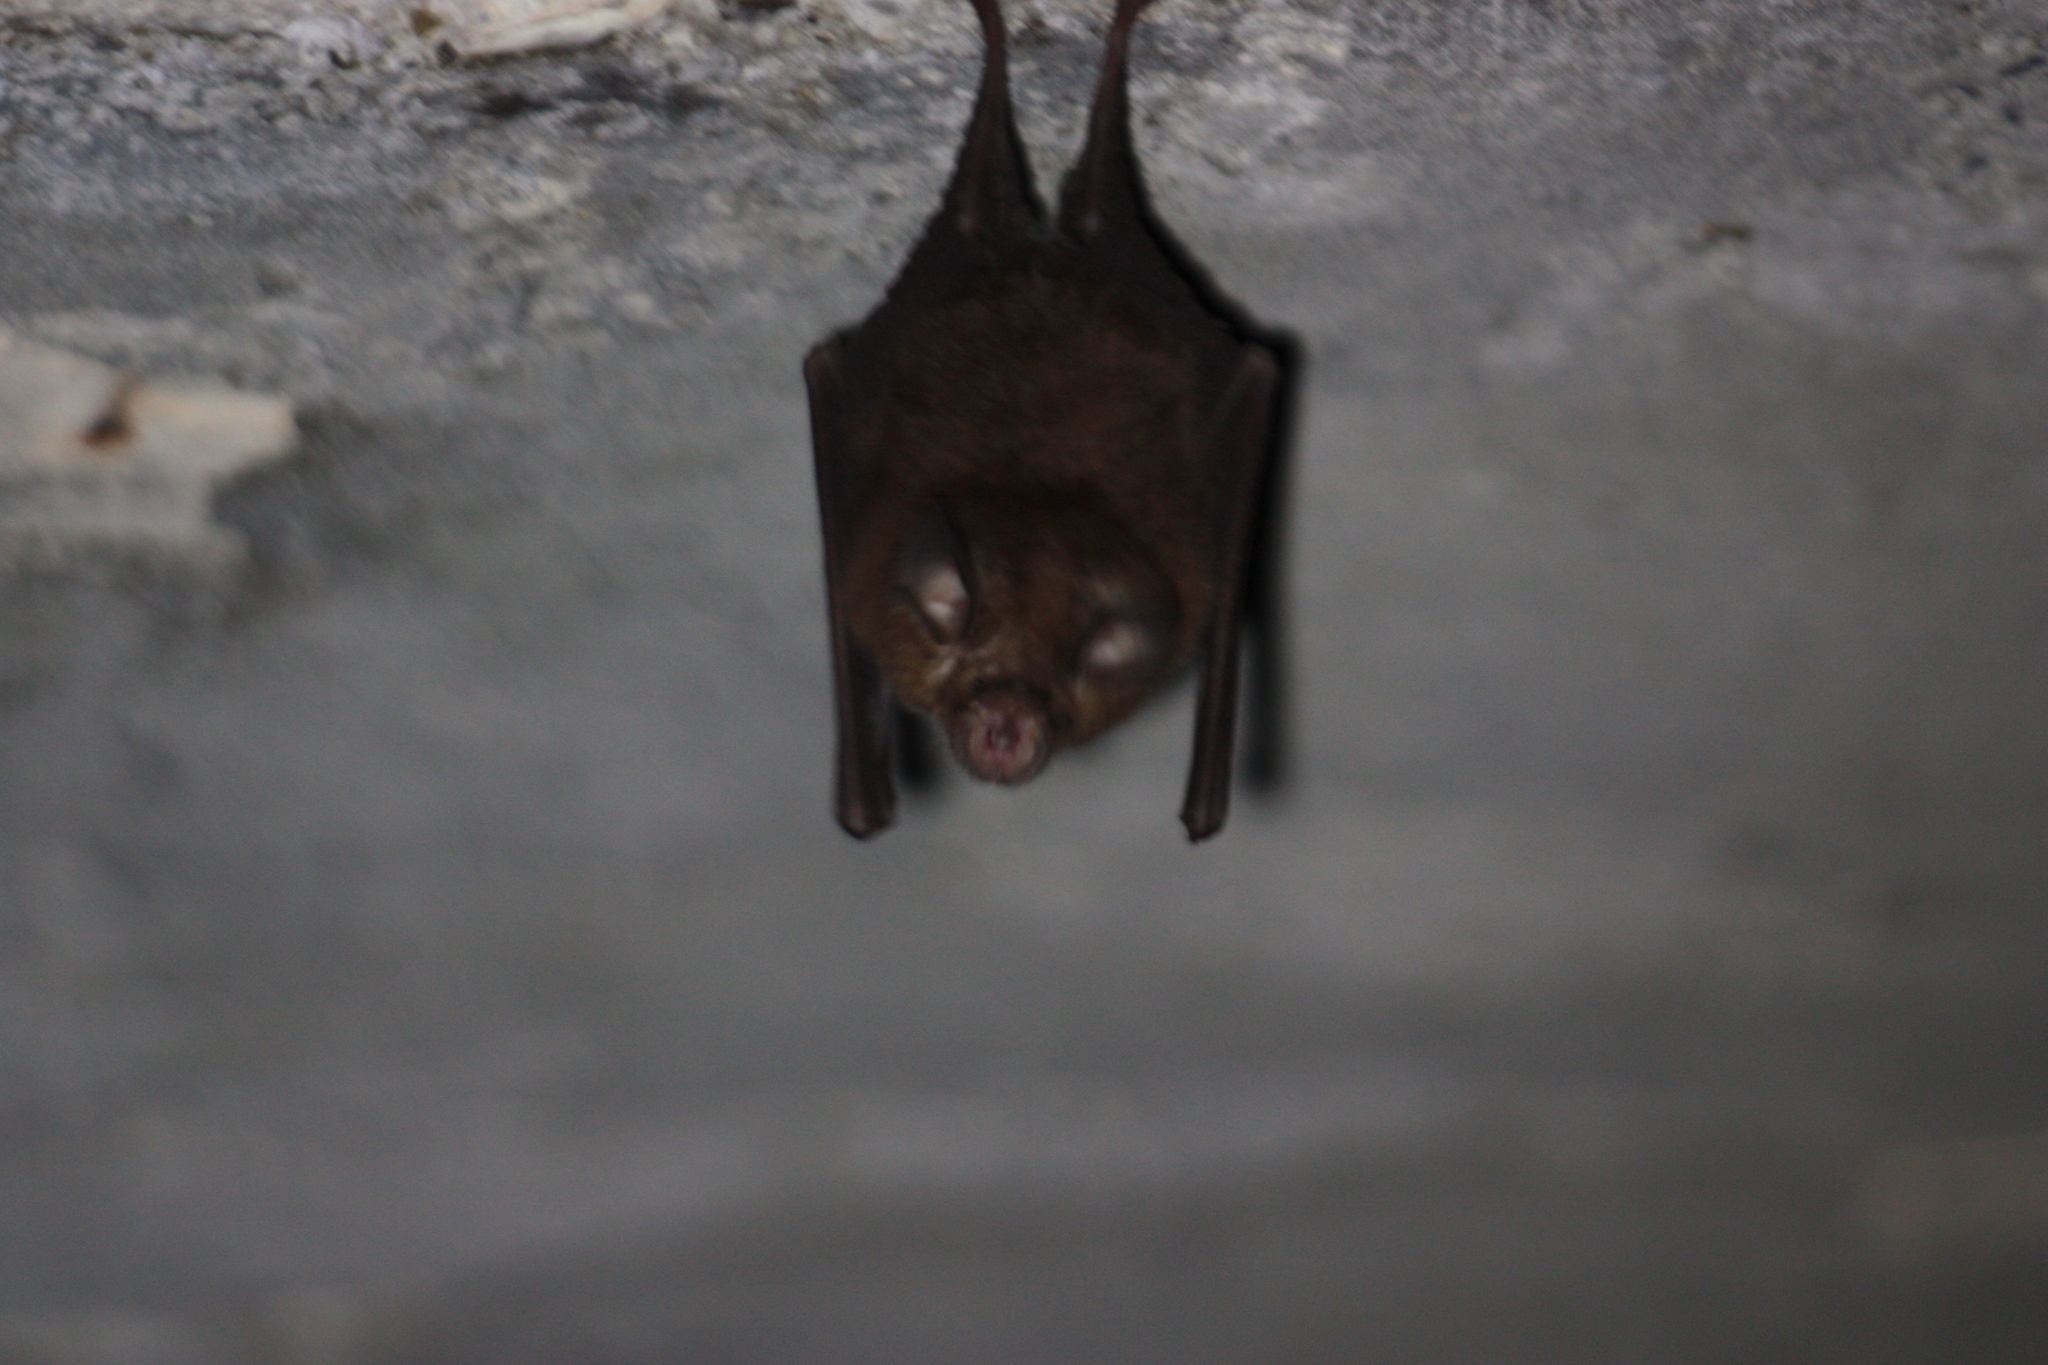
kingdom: Animalia
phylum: Chordata
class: Mammalia
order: Chiroptera
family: Rhinolophidae
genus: Rhinolophus
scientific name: Rhinolophus monoceros
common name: Formosan lesser horseshoe bat
